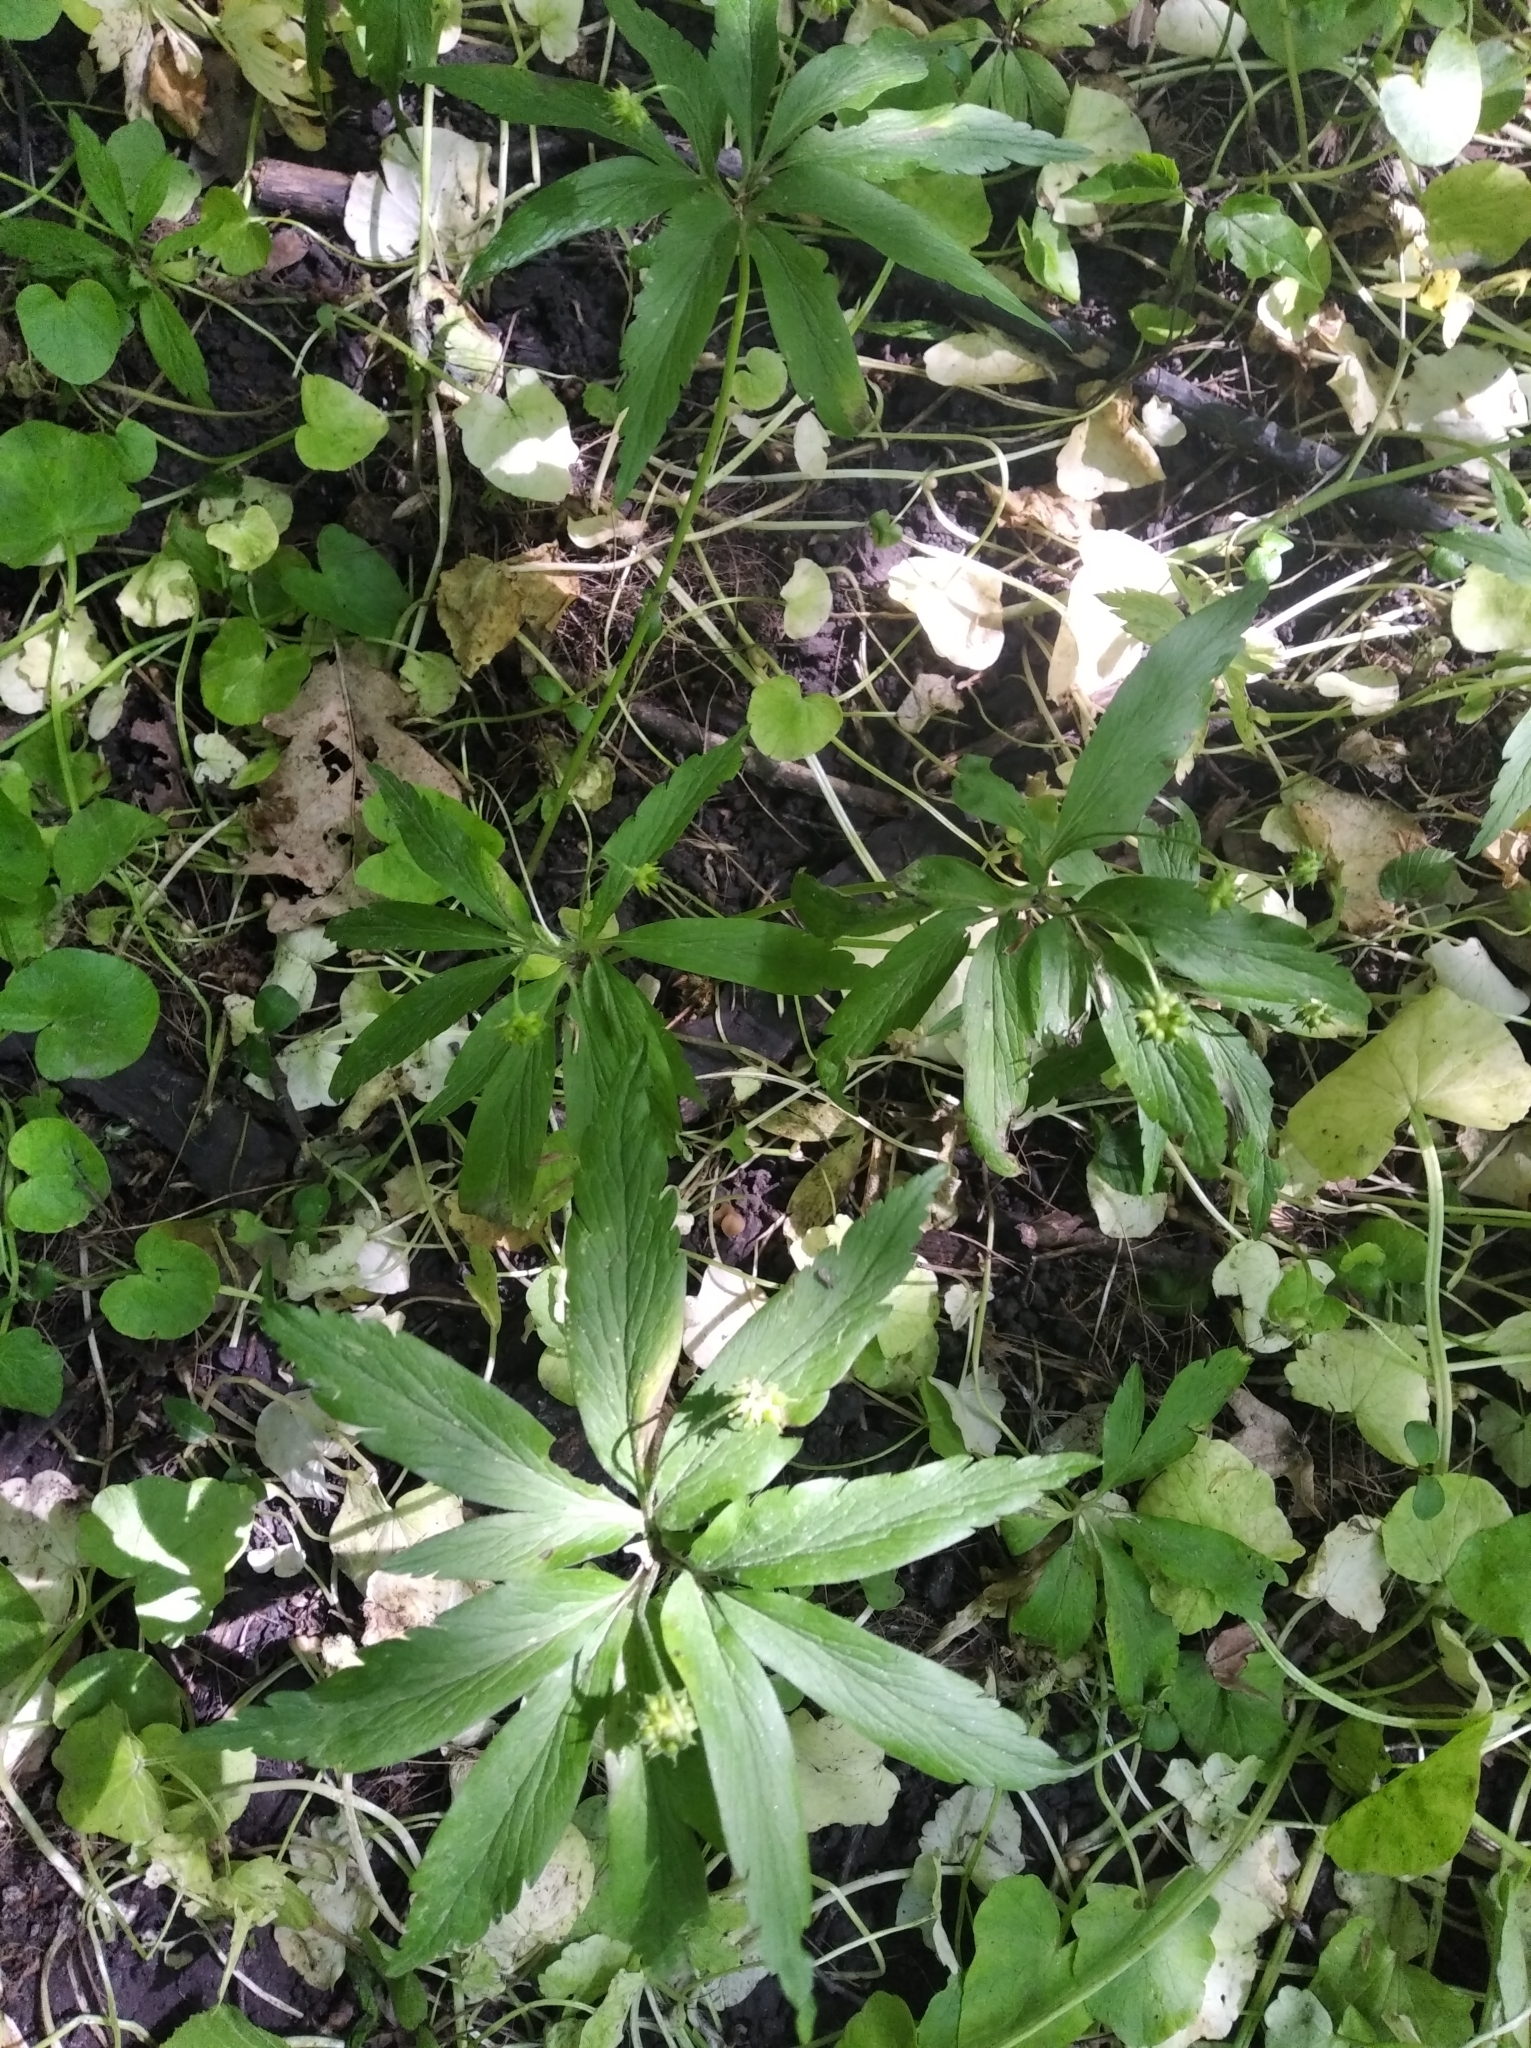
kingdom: Plantae
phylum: Tracheophyta
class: Magnoliopsida
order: Ranunculales
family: Ranunculaceae
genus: Anemone
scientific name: Anemone ranunculoides
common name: Yellow anemone
